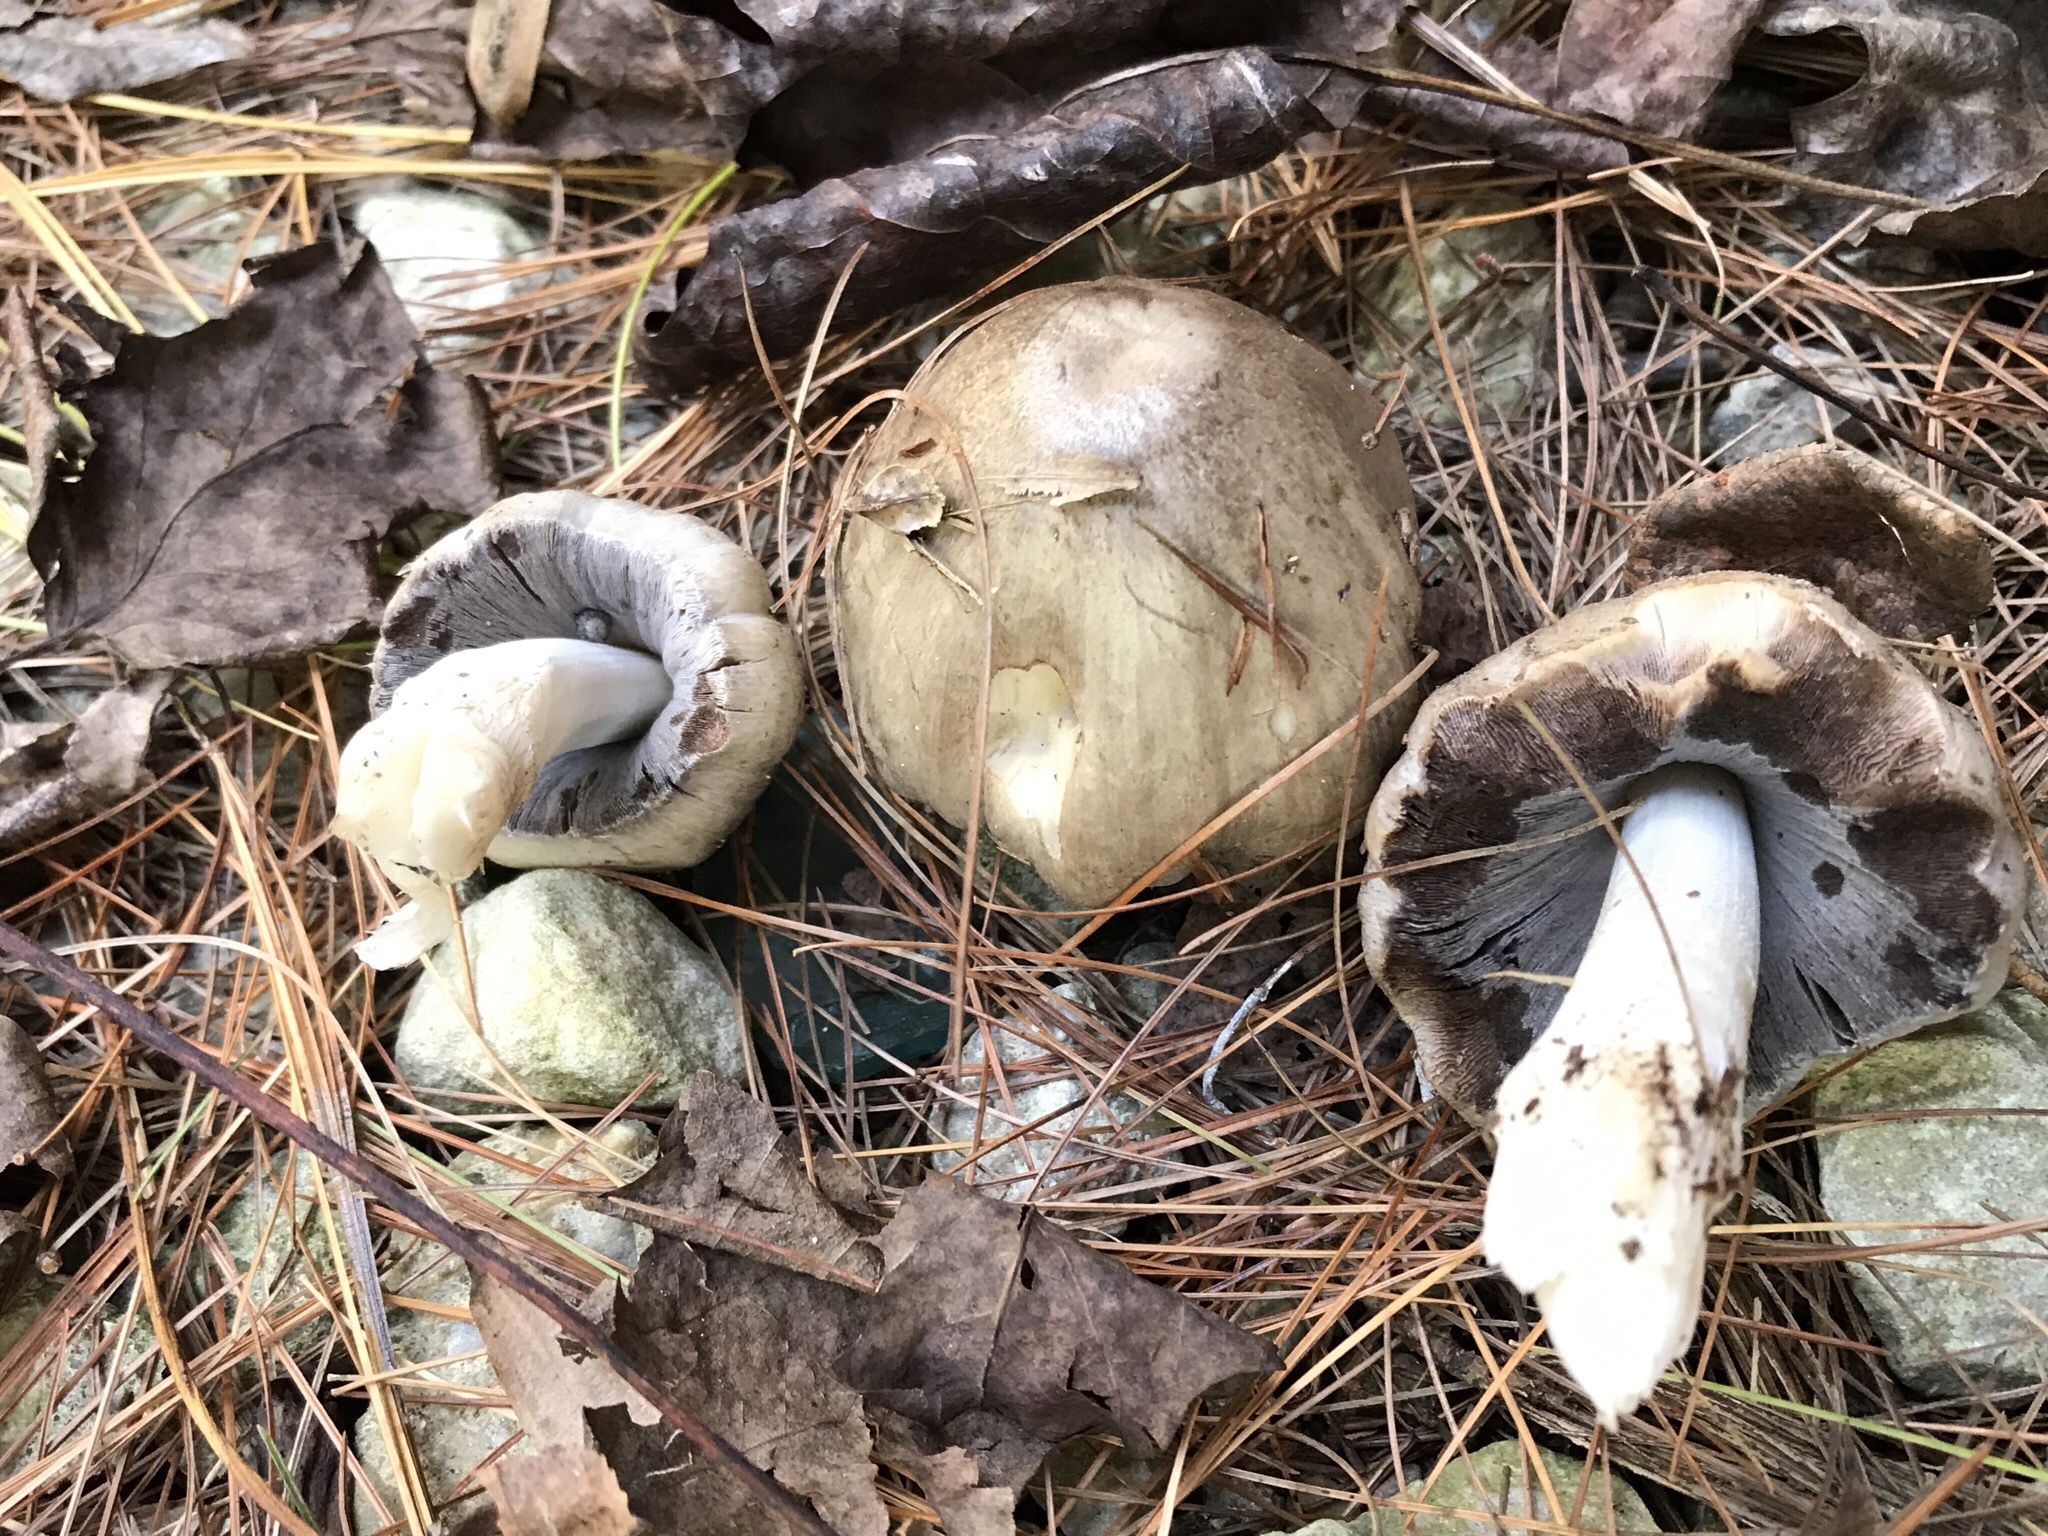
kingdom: Fungi
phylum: Basidiomycota
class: Agaricomycetes
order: Agaricales
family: Psathyrellaceae
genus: Coprinopsis
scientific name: Coprinopsis atramentaria
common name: Common ink-cap
